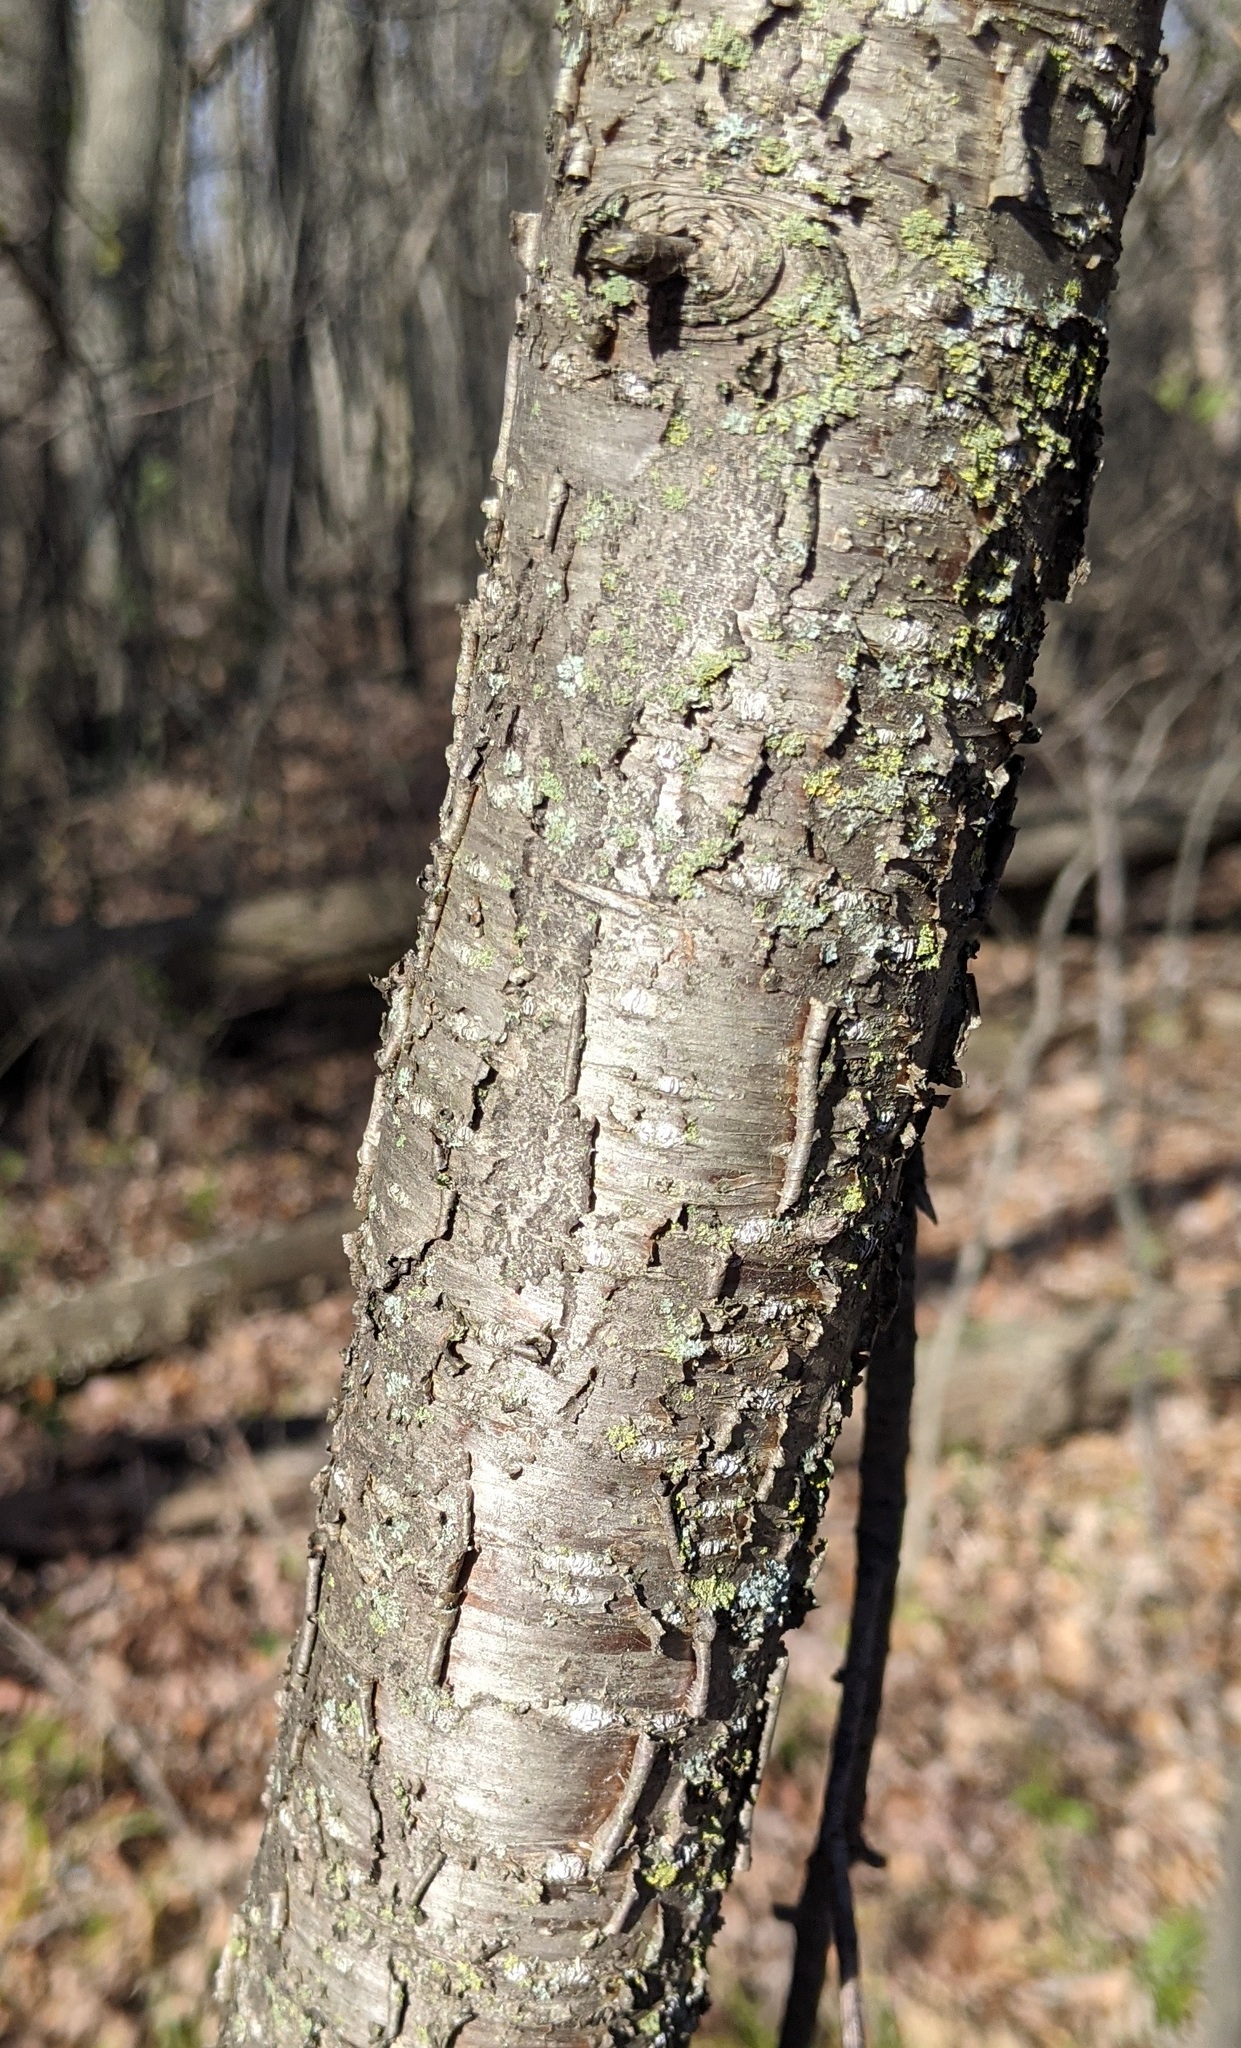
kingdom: Plantae
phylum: Tracheophyta
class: Magnoliopsida
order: Rosales
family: Rhamnaceae
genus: Rhamnus
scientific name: Rhamnus cathartica
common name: Common buckthorn
